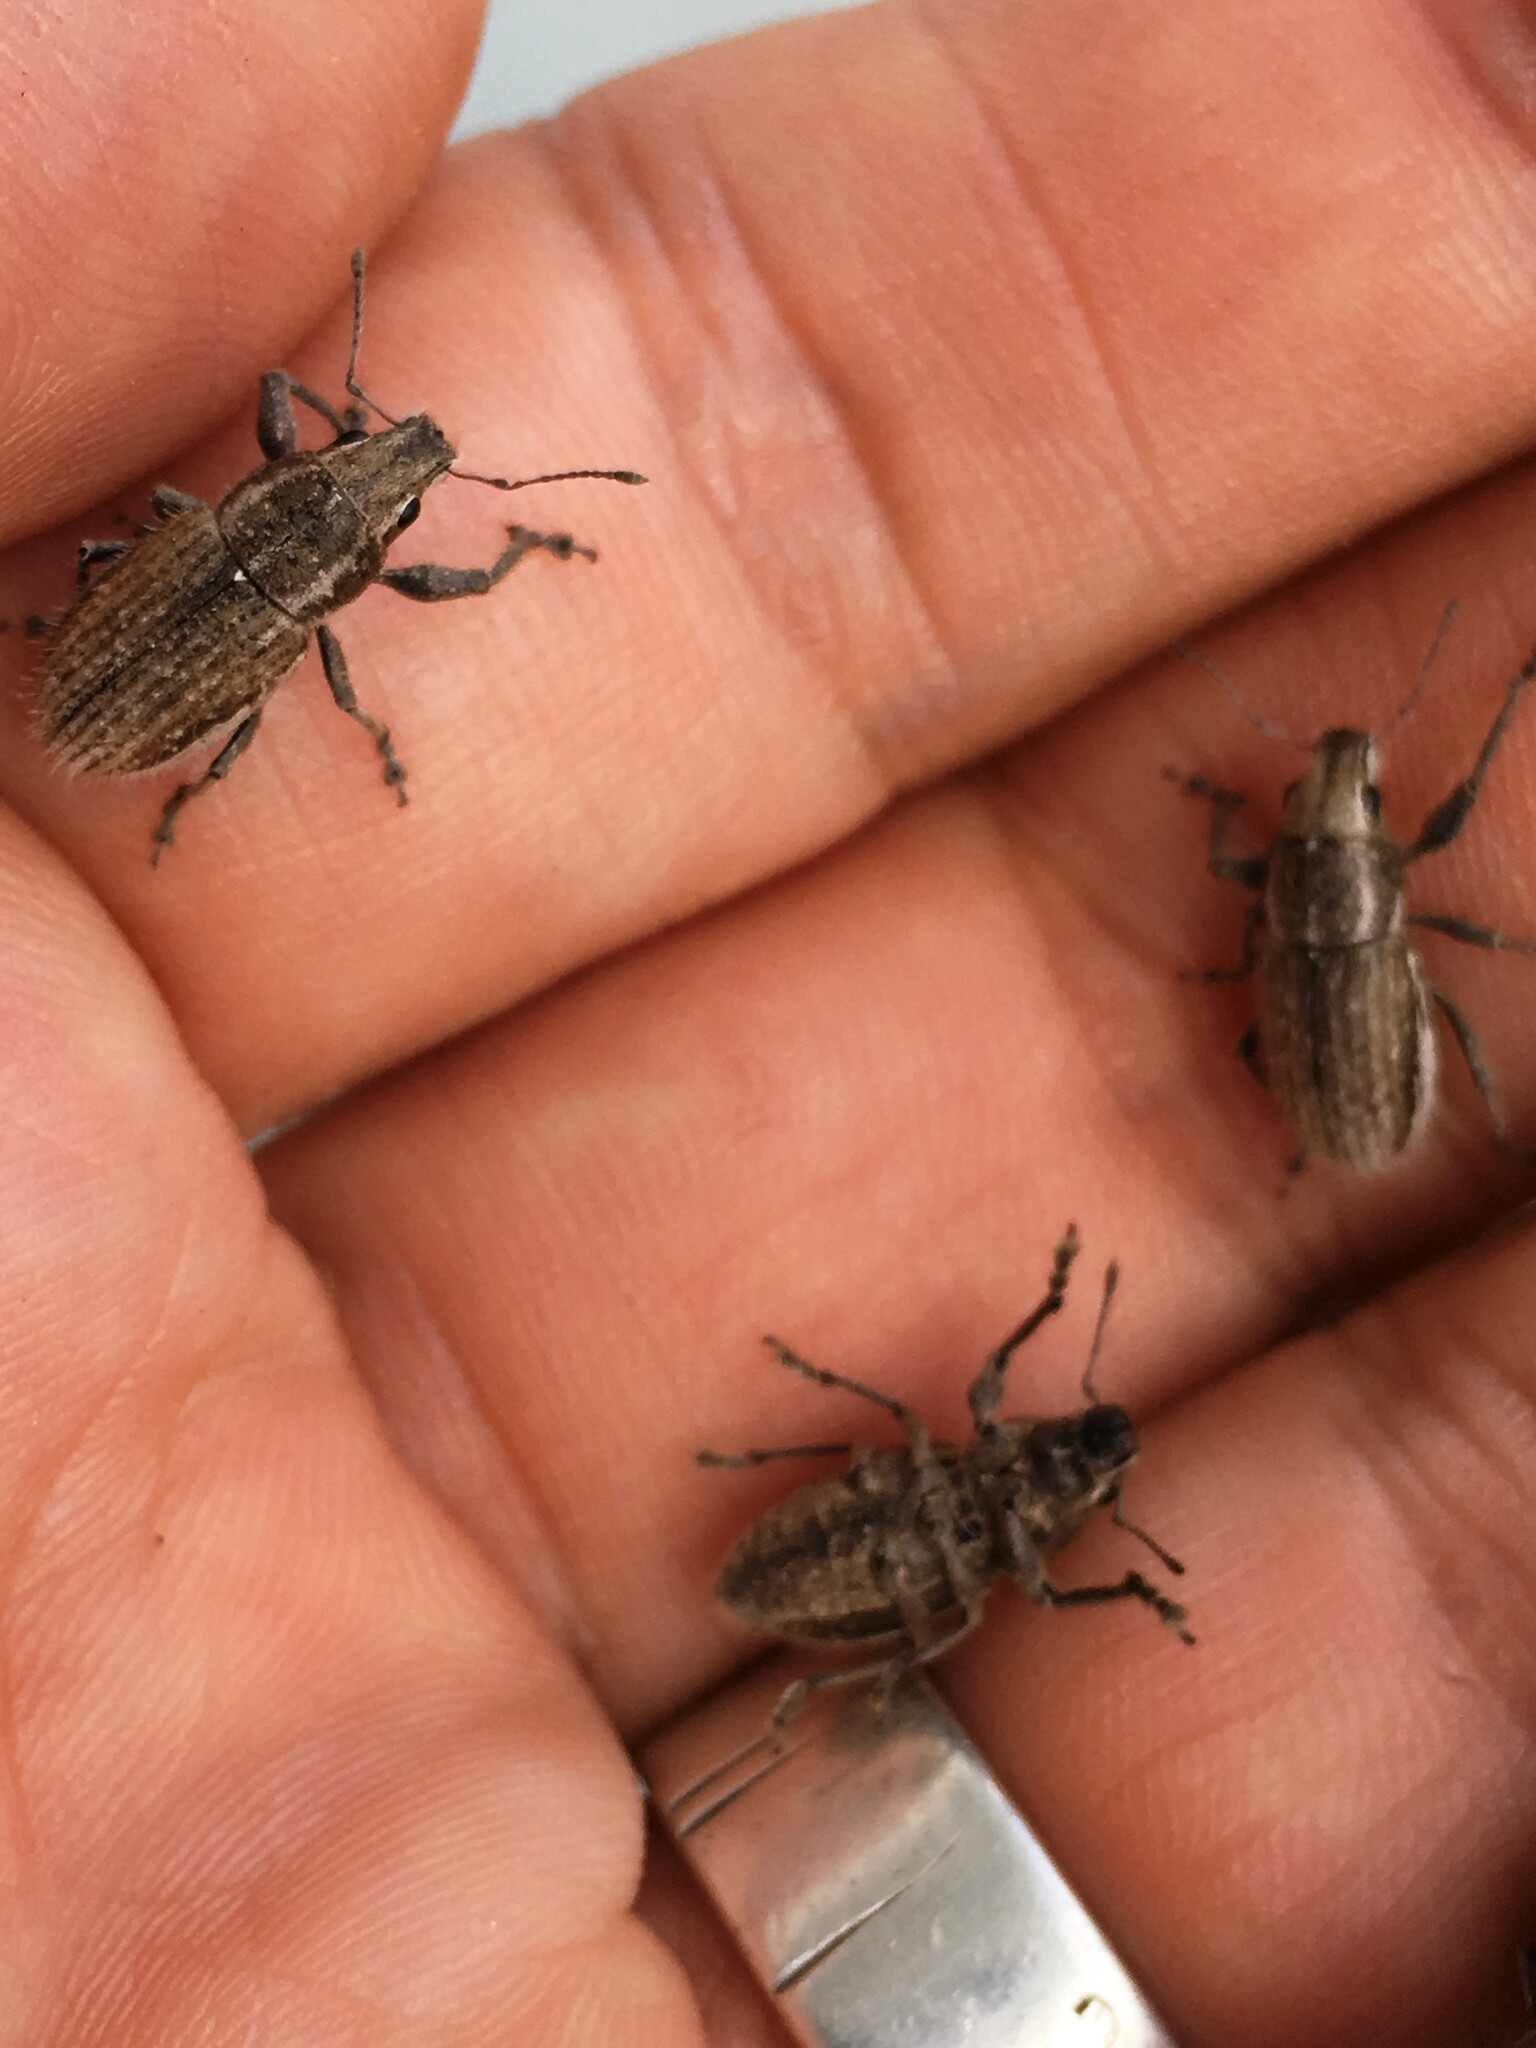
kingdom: Animalia
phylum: Arthropoda
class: Insecta
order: Coleoptera
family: Curculionidae
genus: Naupactus
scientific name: Naupactus leucoloma
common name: Whitefringed beetle
